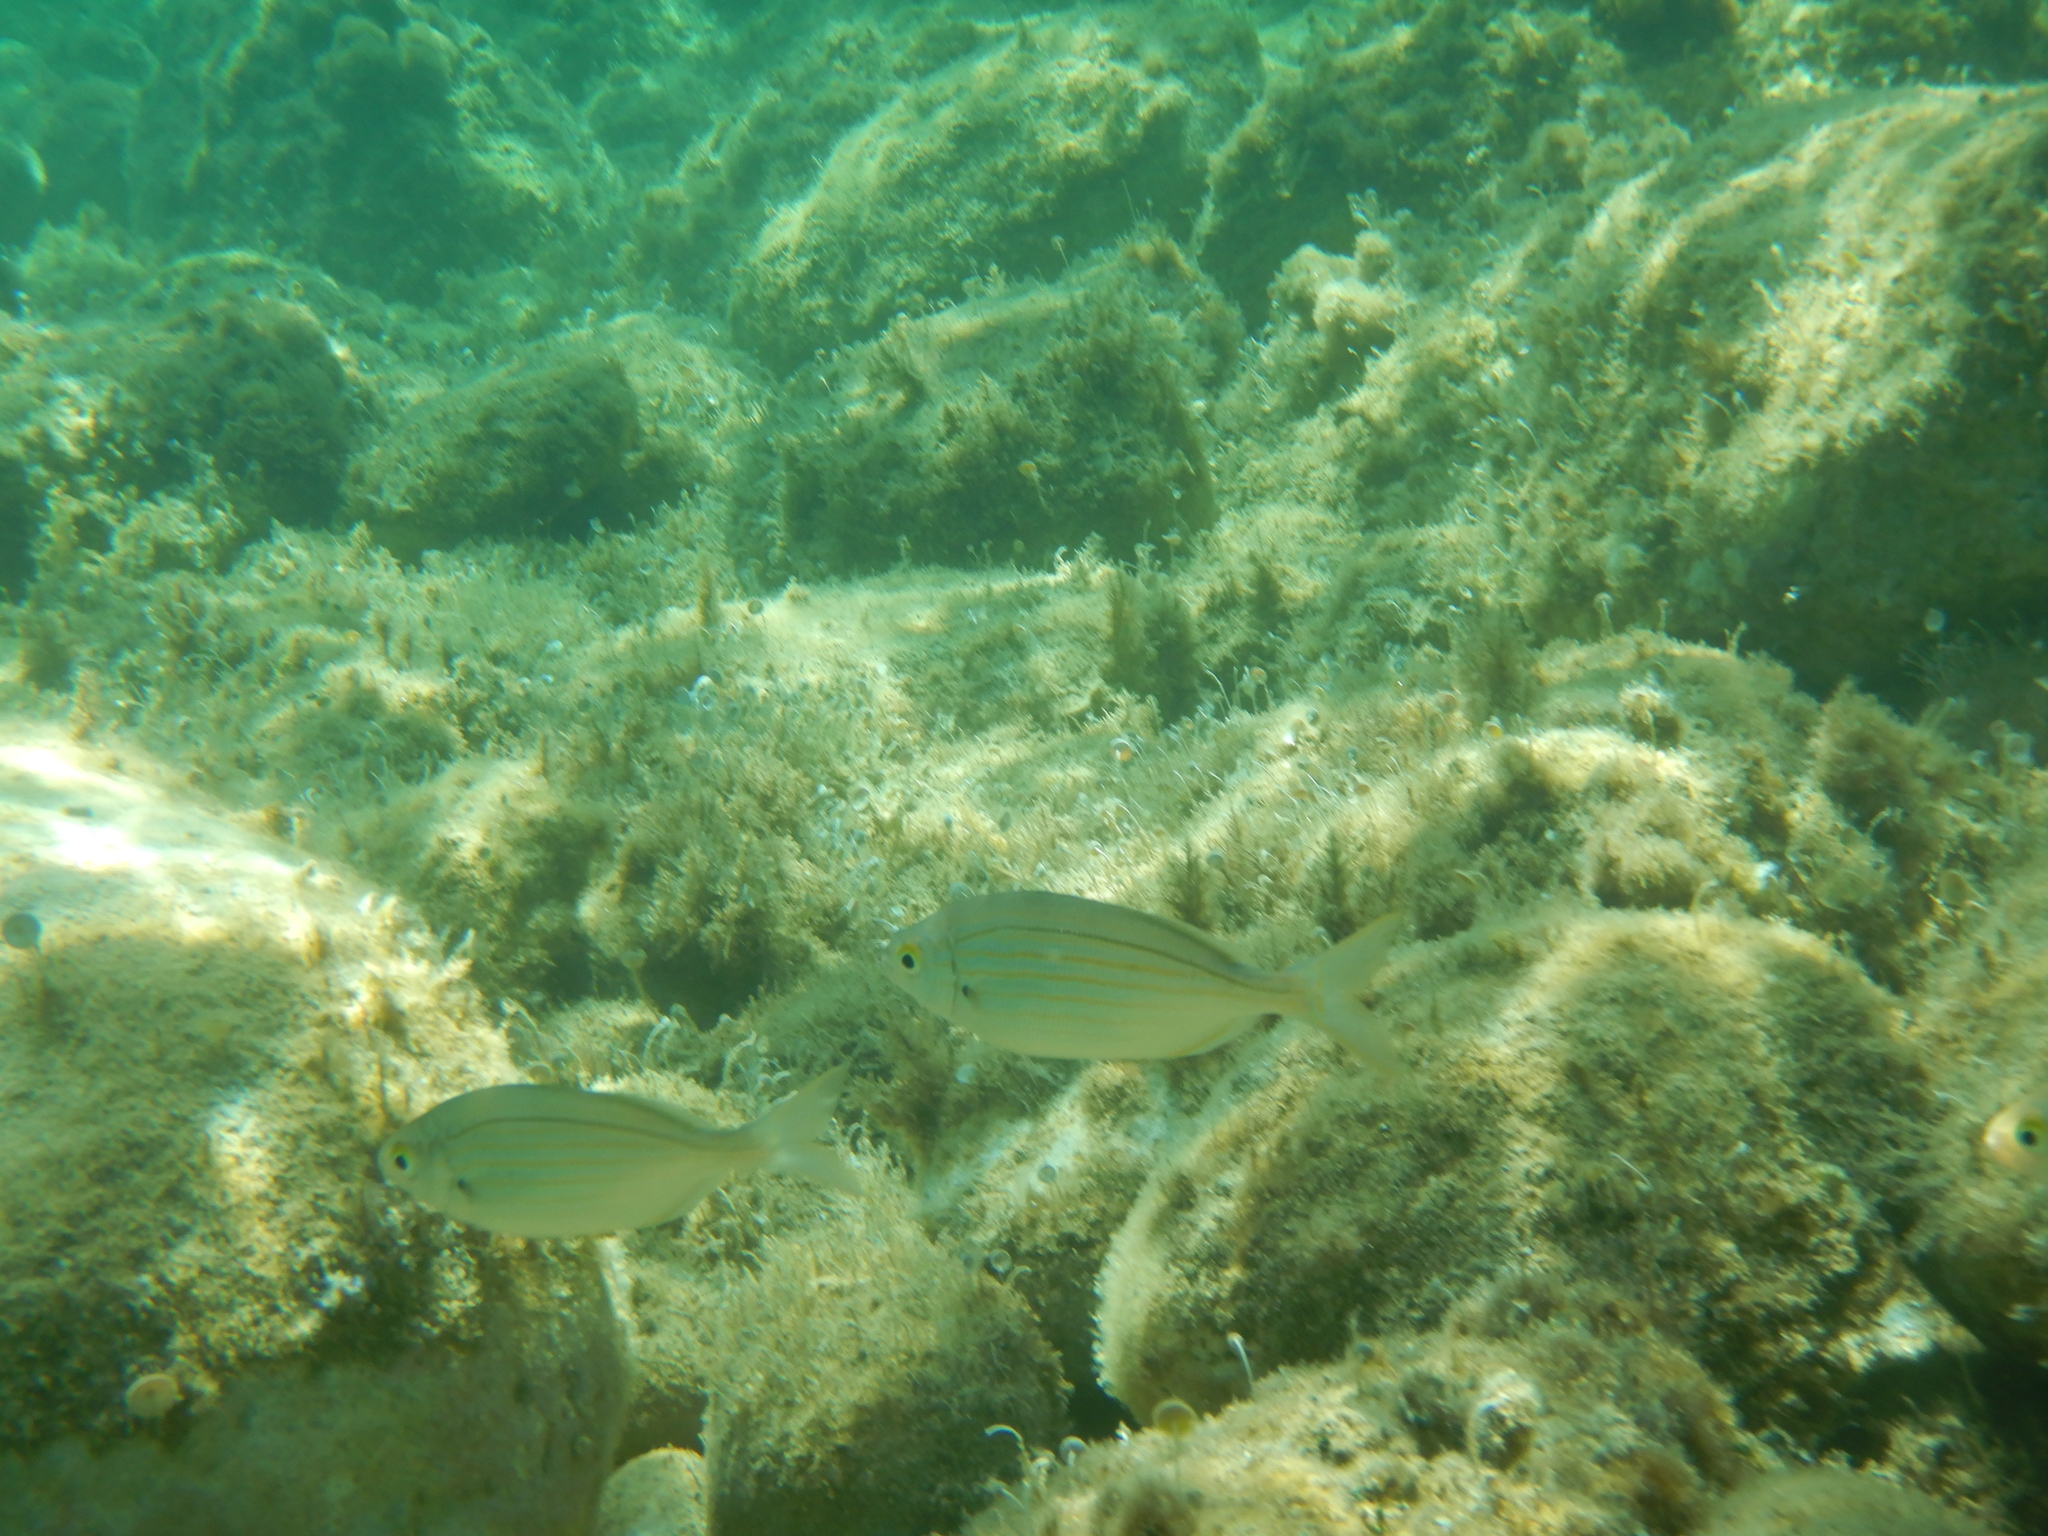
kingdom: Animalia
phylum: Chordata
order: Perciformes
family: Sparidae
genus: Sarpa
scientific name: Sarpa salpa
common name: Salema
